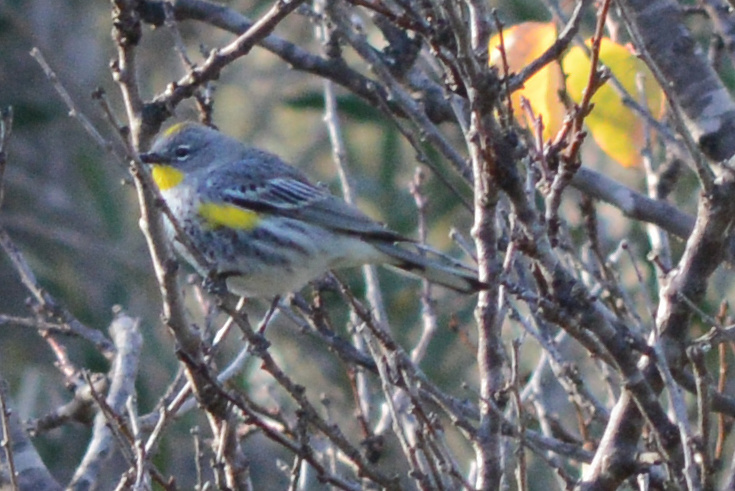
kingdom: Animalia
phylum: Chordata
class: Aves
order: Passeriformes
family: Parulidae
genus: Setophaga
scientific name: Setophaga coronata
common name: Myrtle warbler
